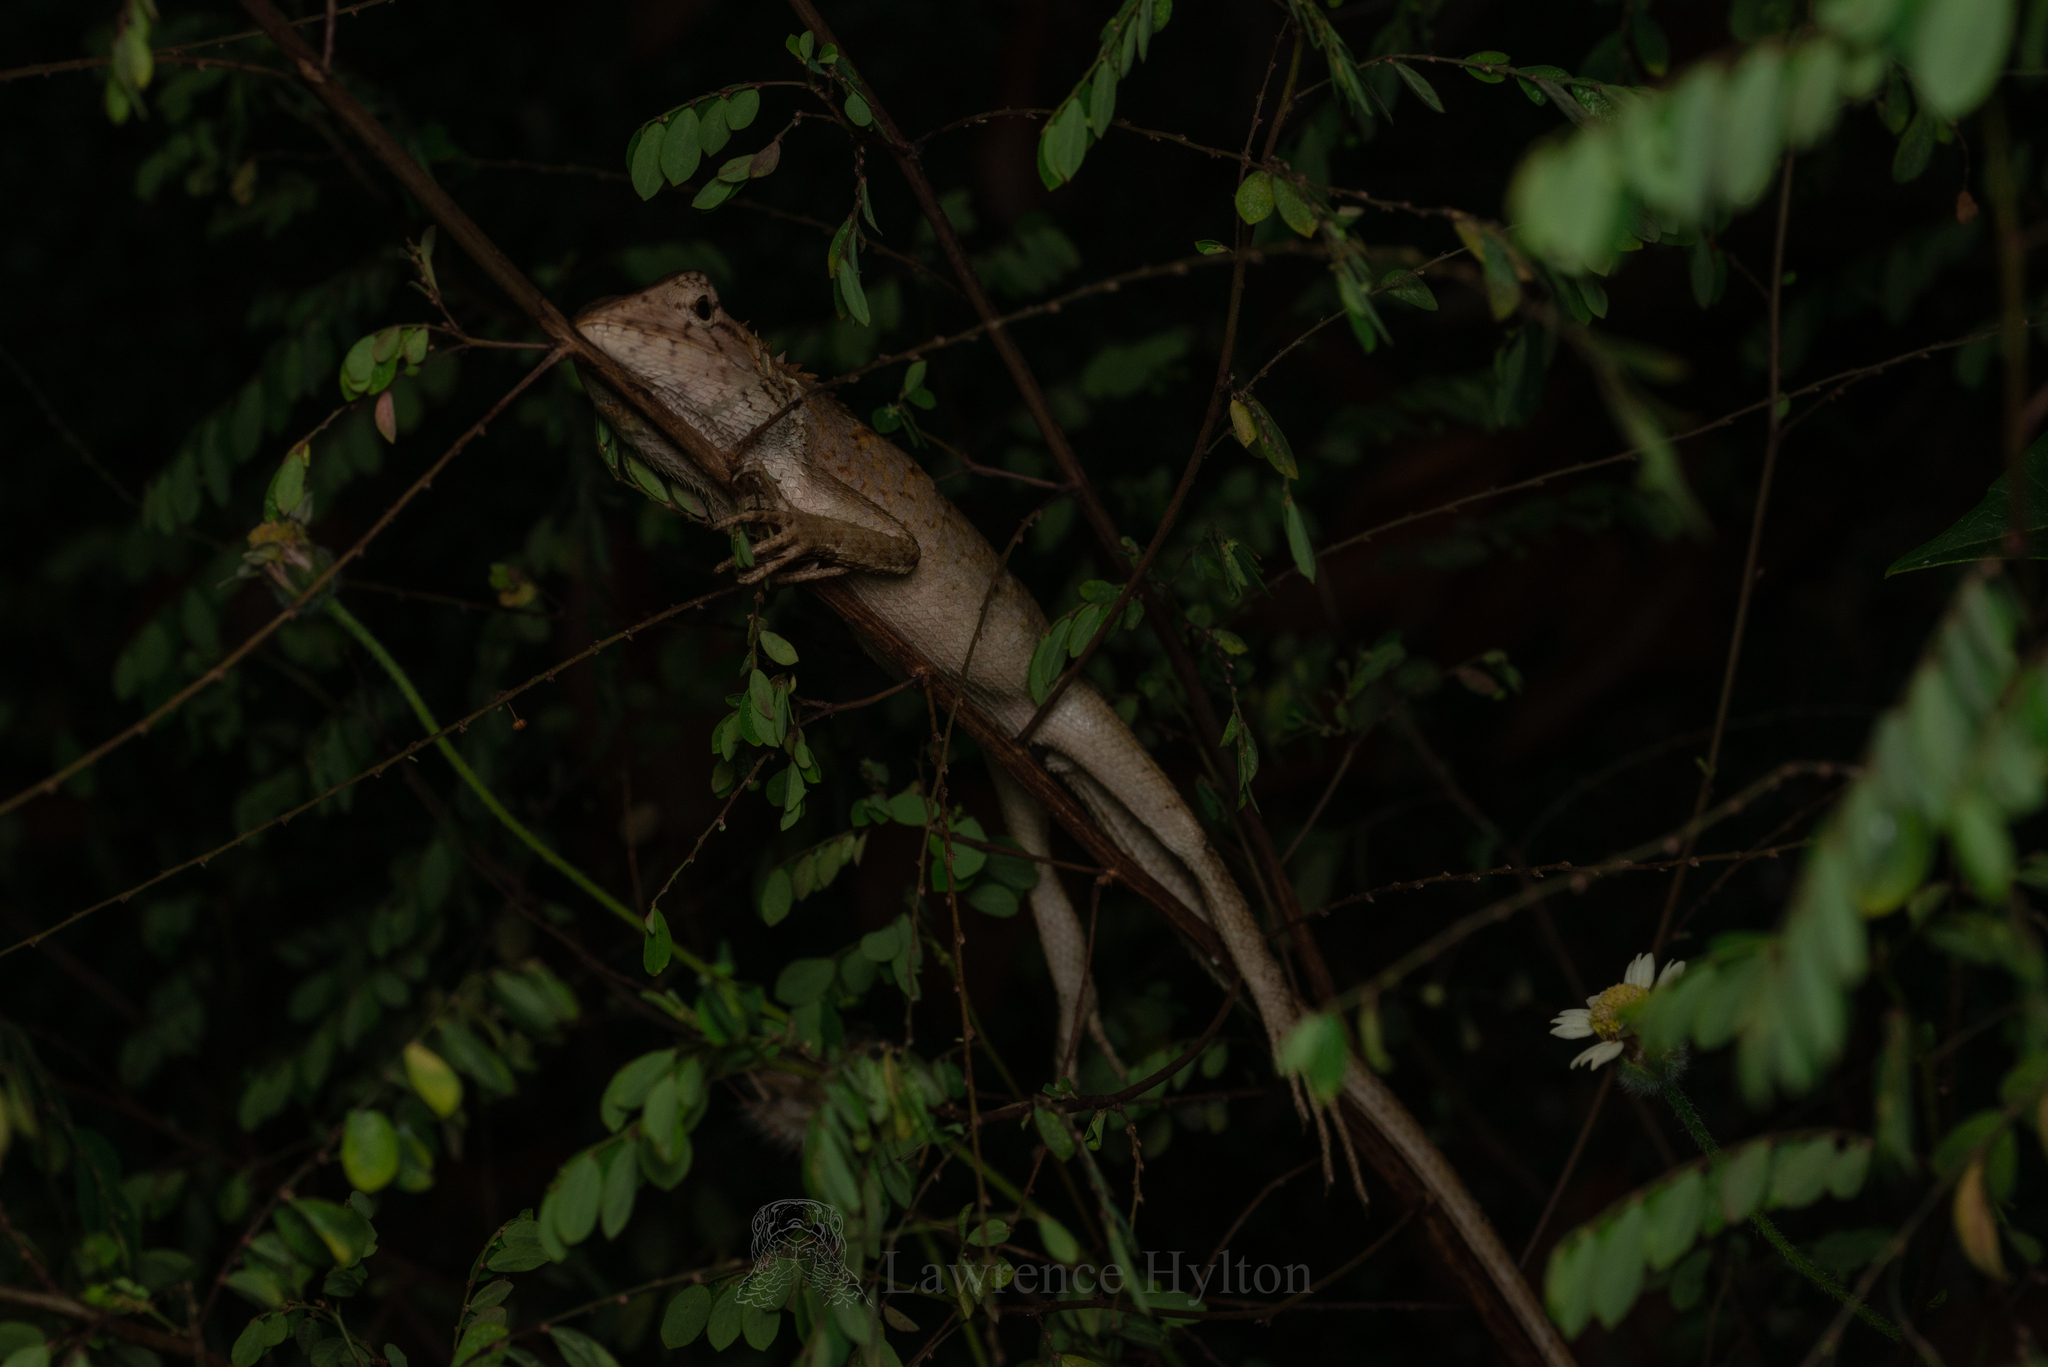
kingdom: Animalia
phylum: Chordata
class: Squamata
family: Agamidae
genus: Calotes
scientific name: Calotes versicolor
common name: Oriental garden lizard
